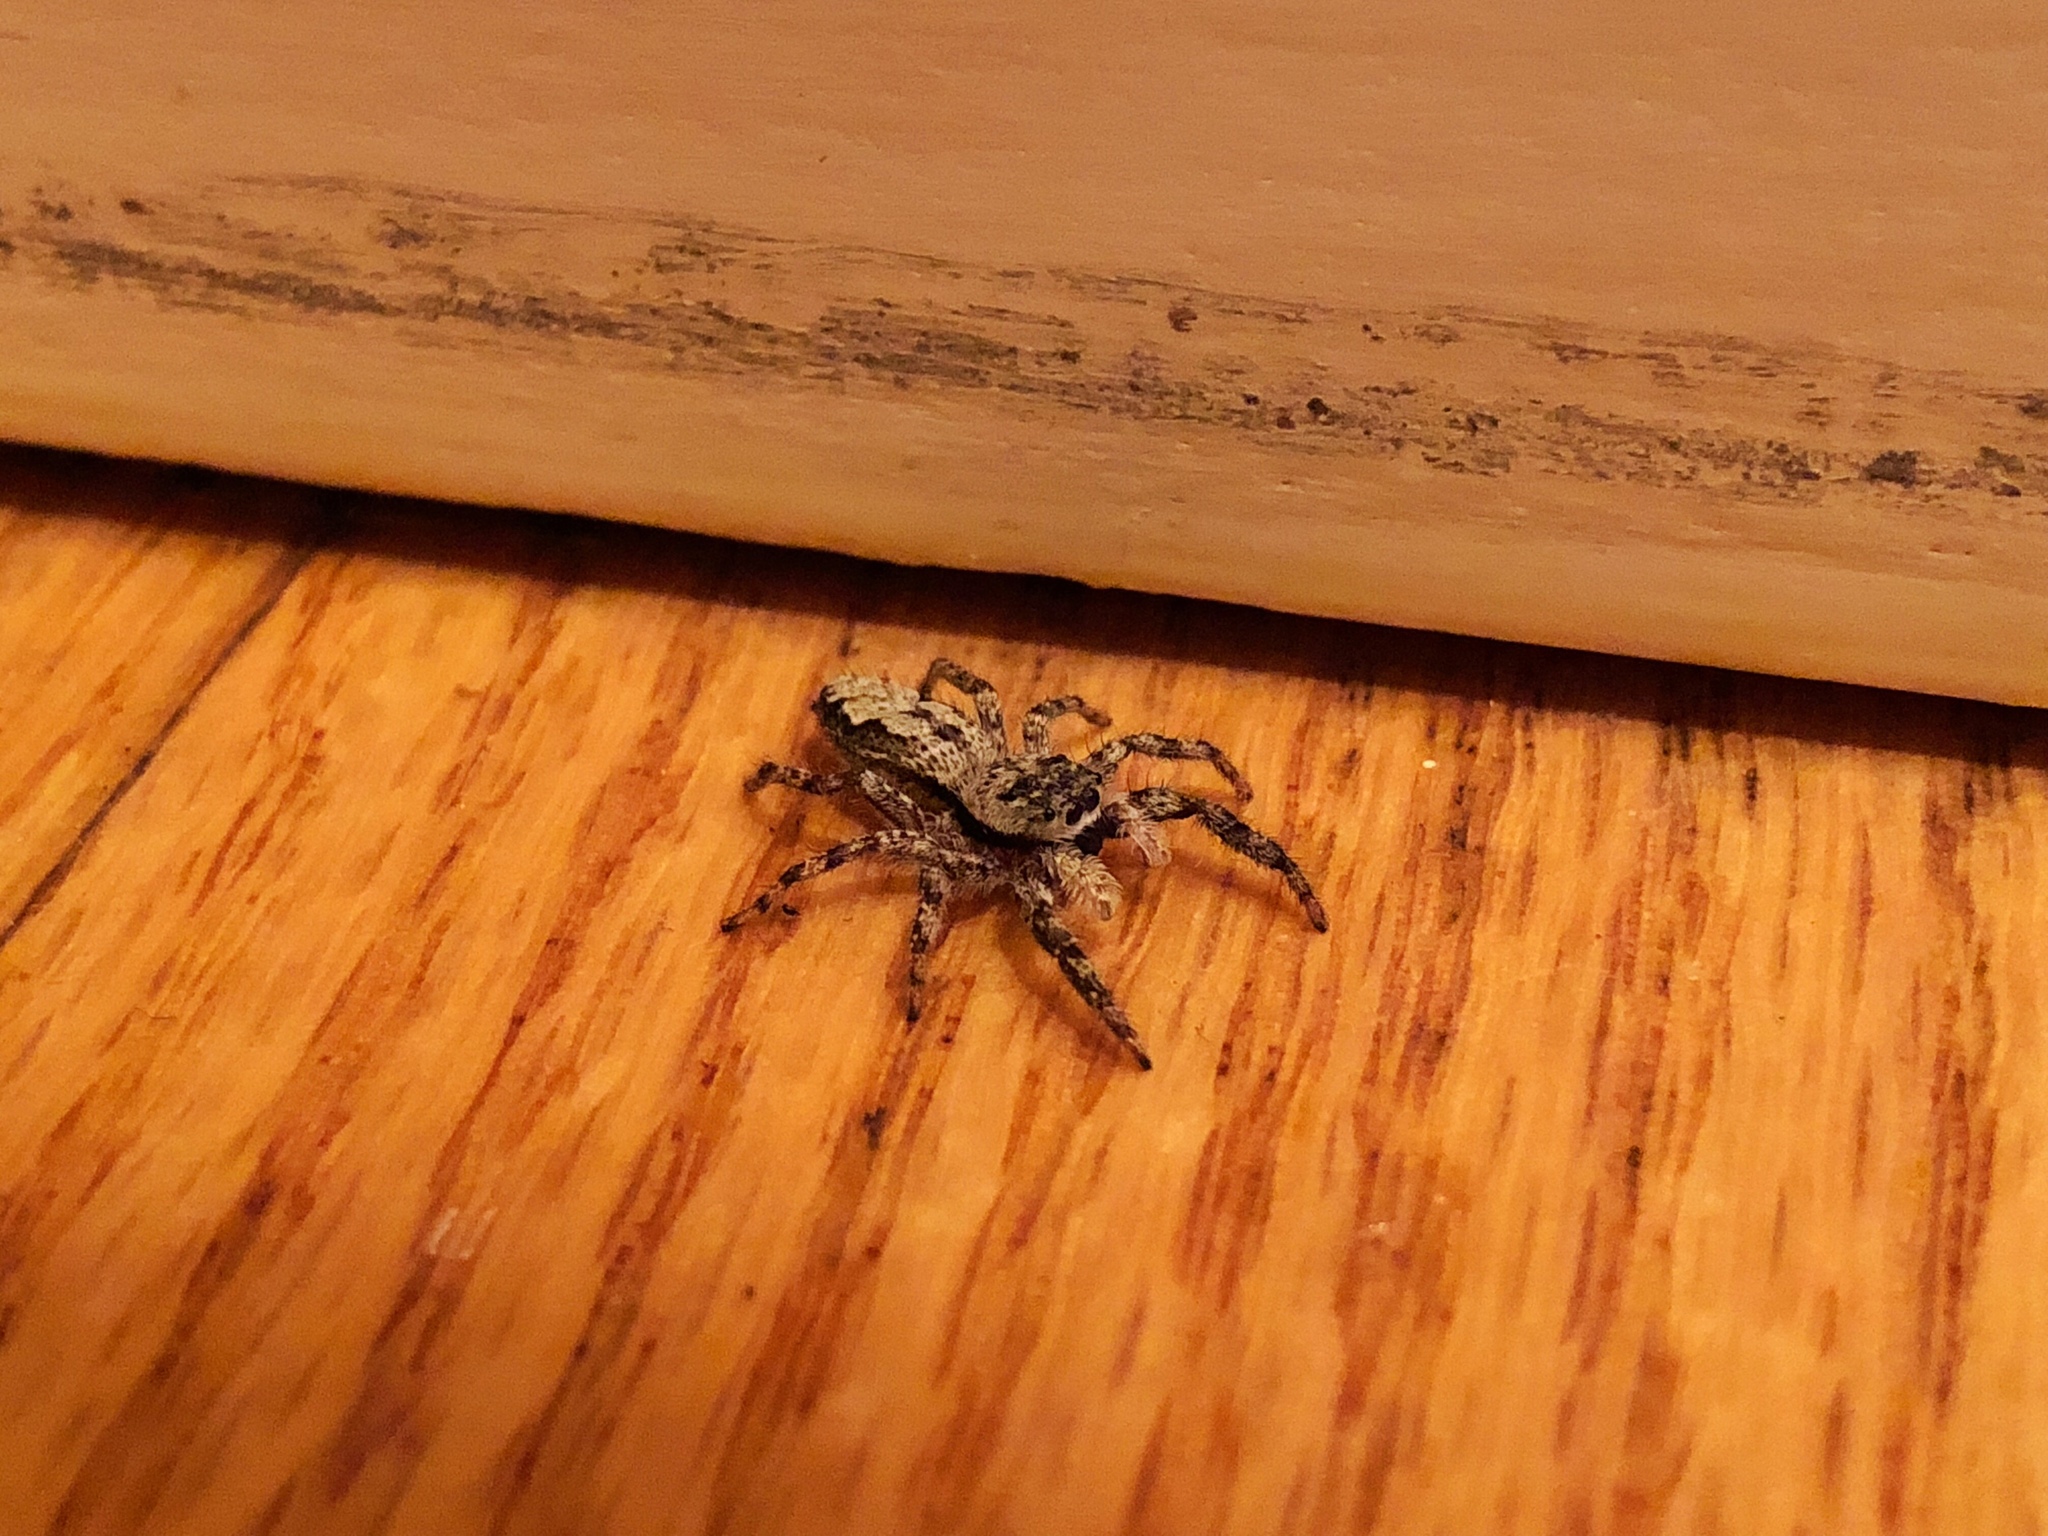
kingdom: Animalia
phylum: Arthropoda
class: Arachnida
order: Araneae
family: Salticidae
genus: Platycryptus
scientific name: Platycryptus undatus
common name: Tan jumping spider
